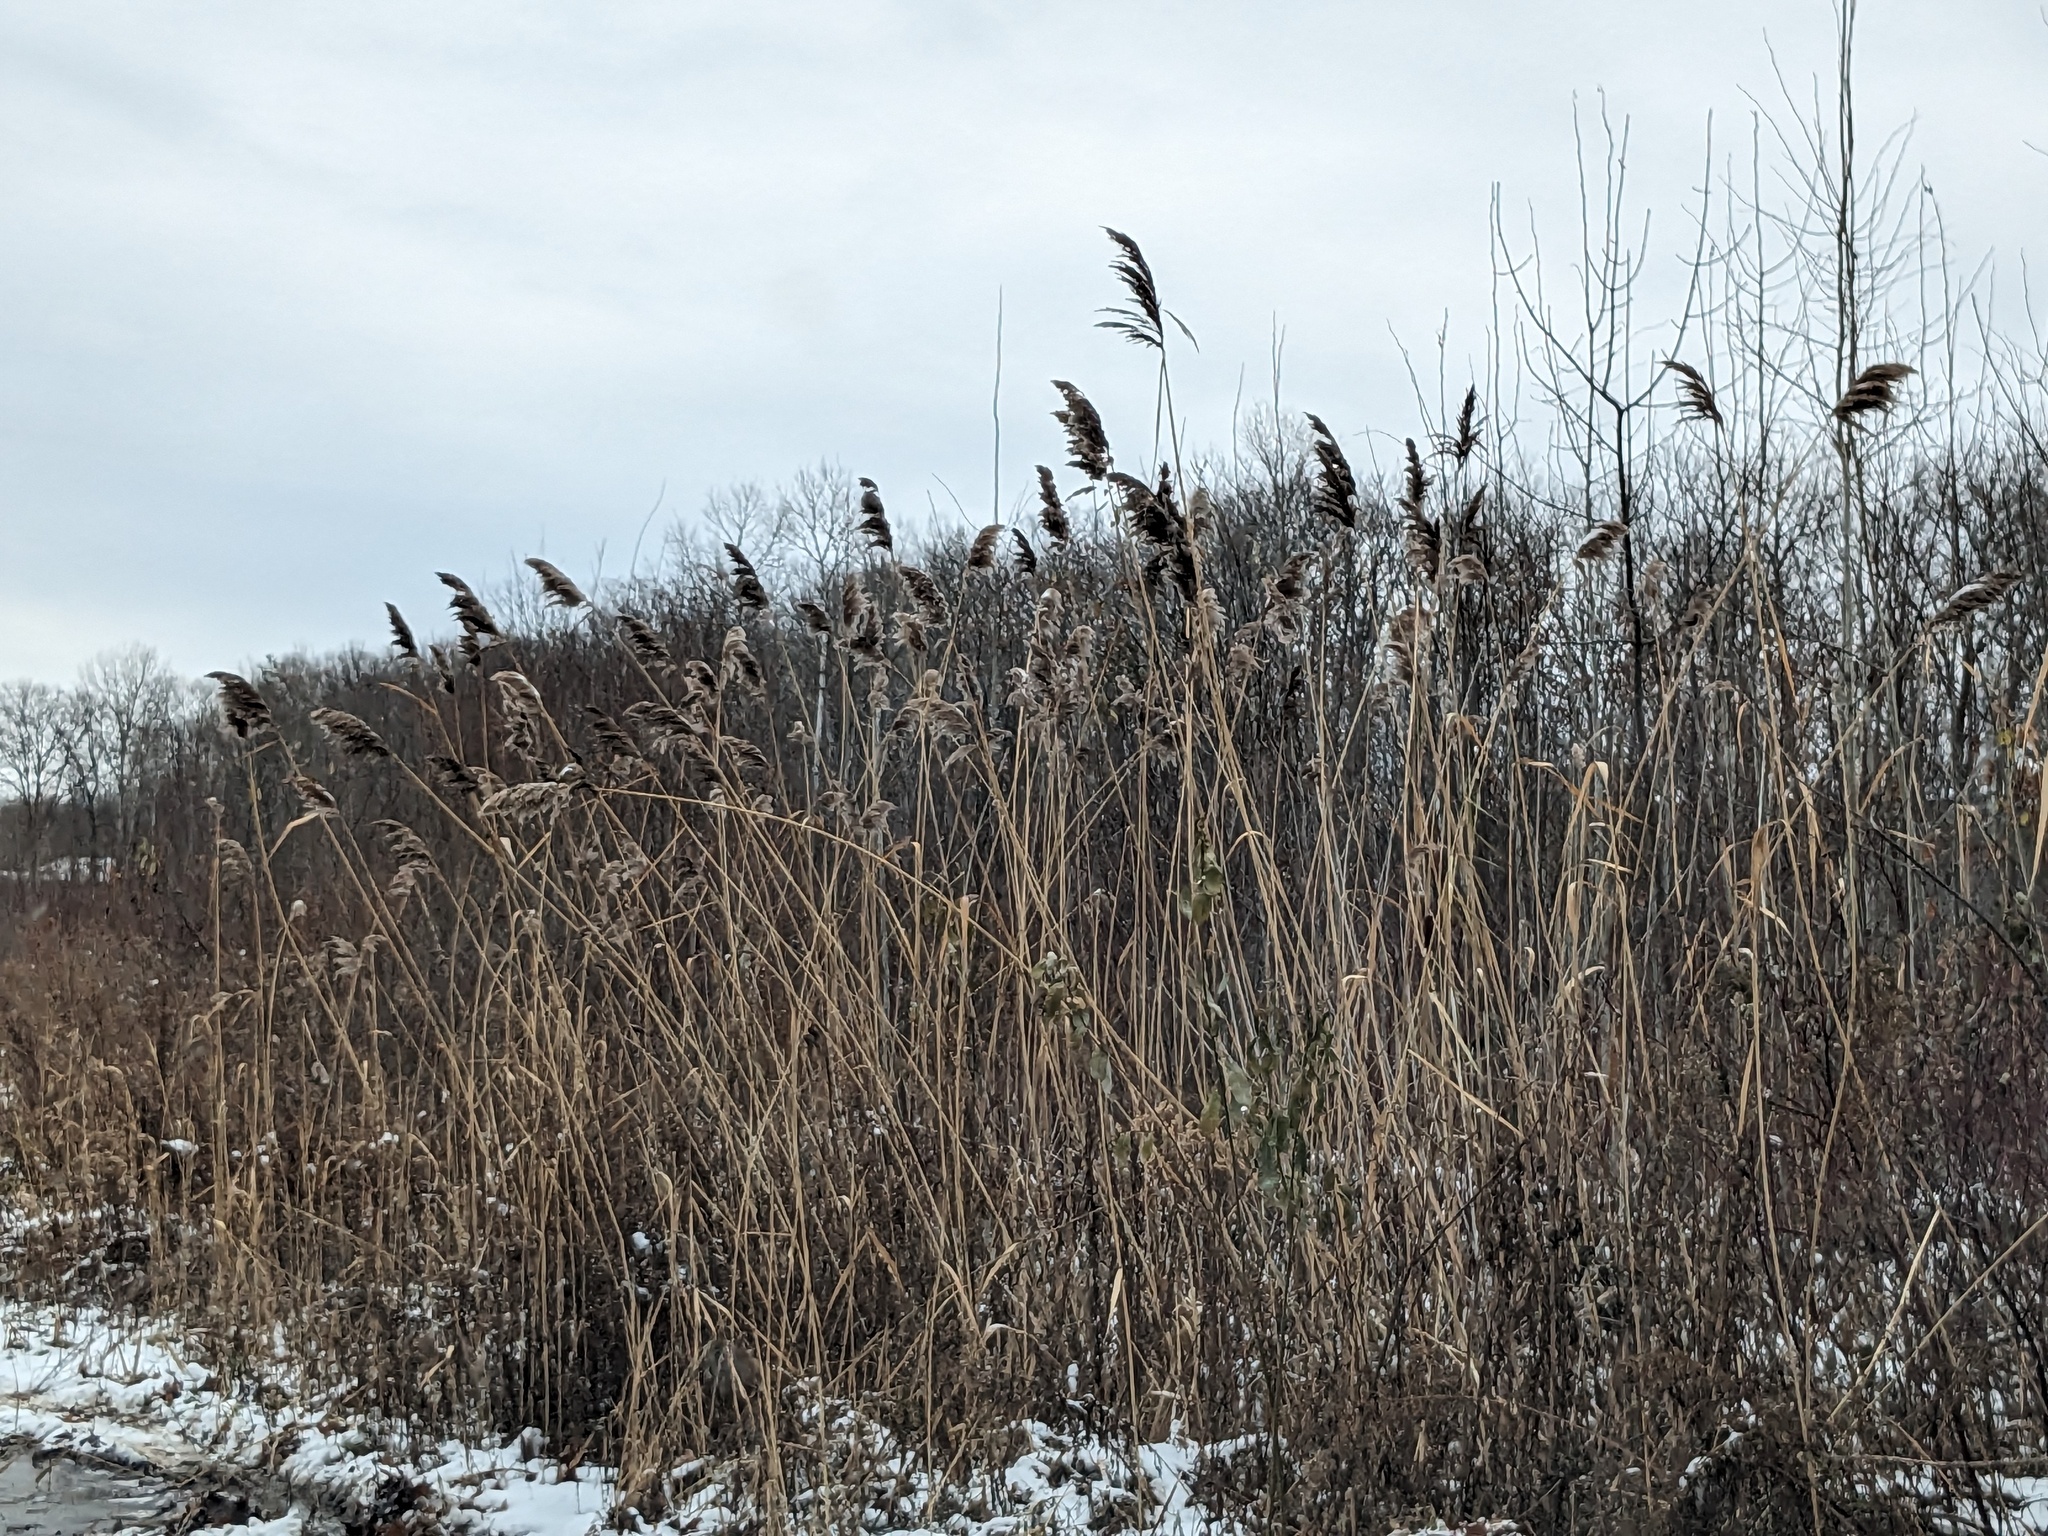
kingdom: Plantae
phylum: Tracheophyta
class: Liliopsida
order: Poales
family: Poaceae
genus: Phragmites
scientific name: Phragmites australis
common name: Common reed
